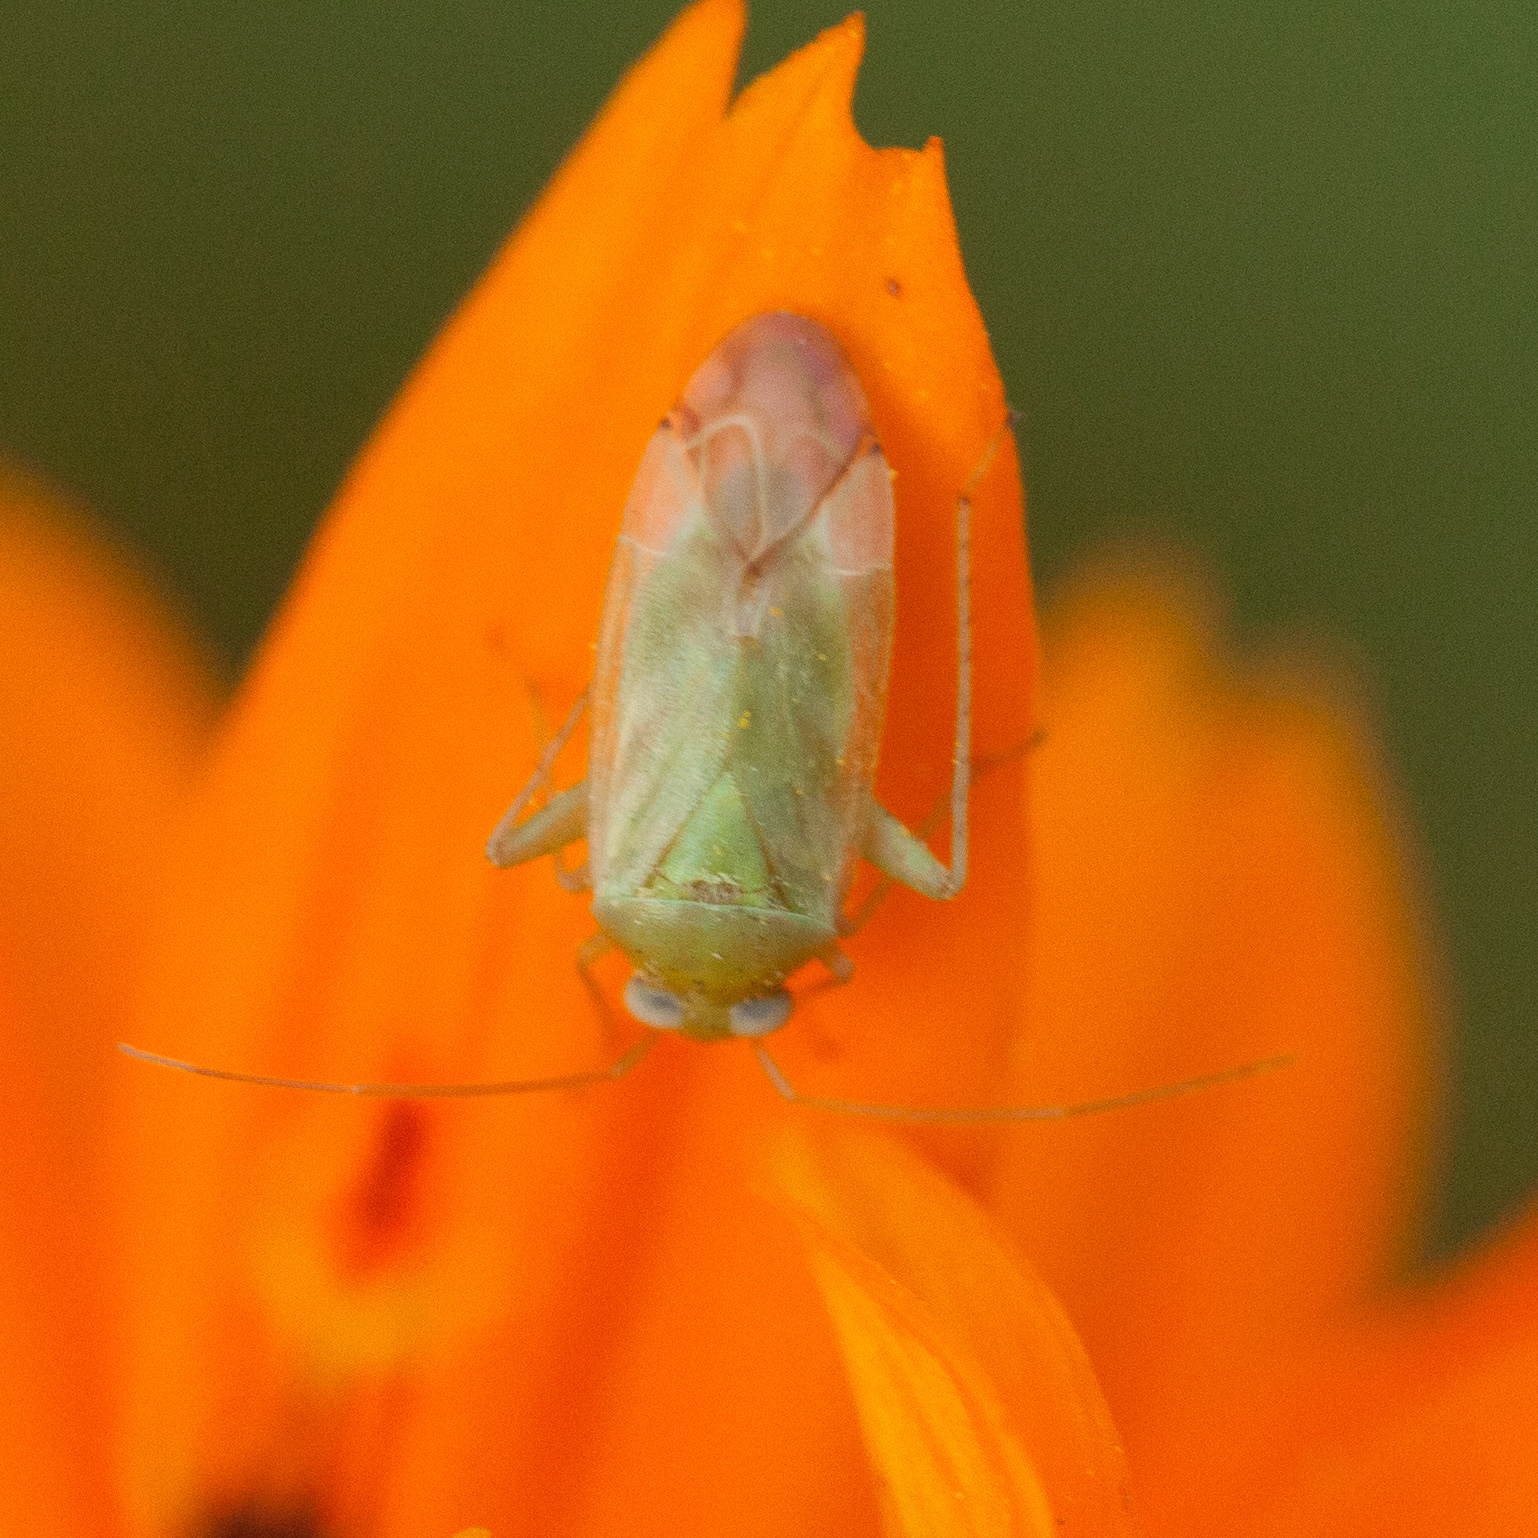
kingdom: Animalia
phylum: Arthropoda
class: Insecta
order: Hemiptera
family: Miridae
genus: Taylorilygus
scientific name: Taylorilygus apicalis
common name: Plant bug
